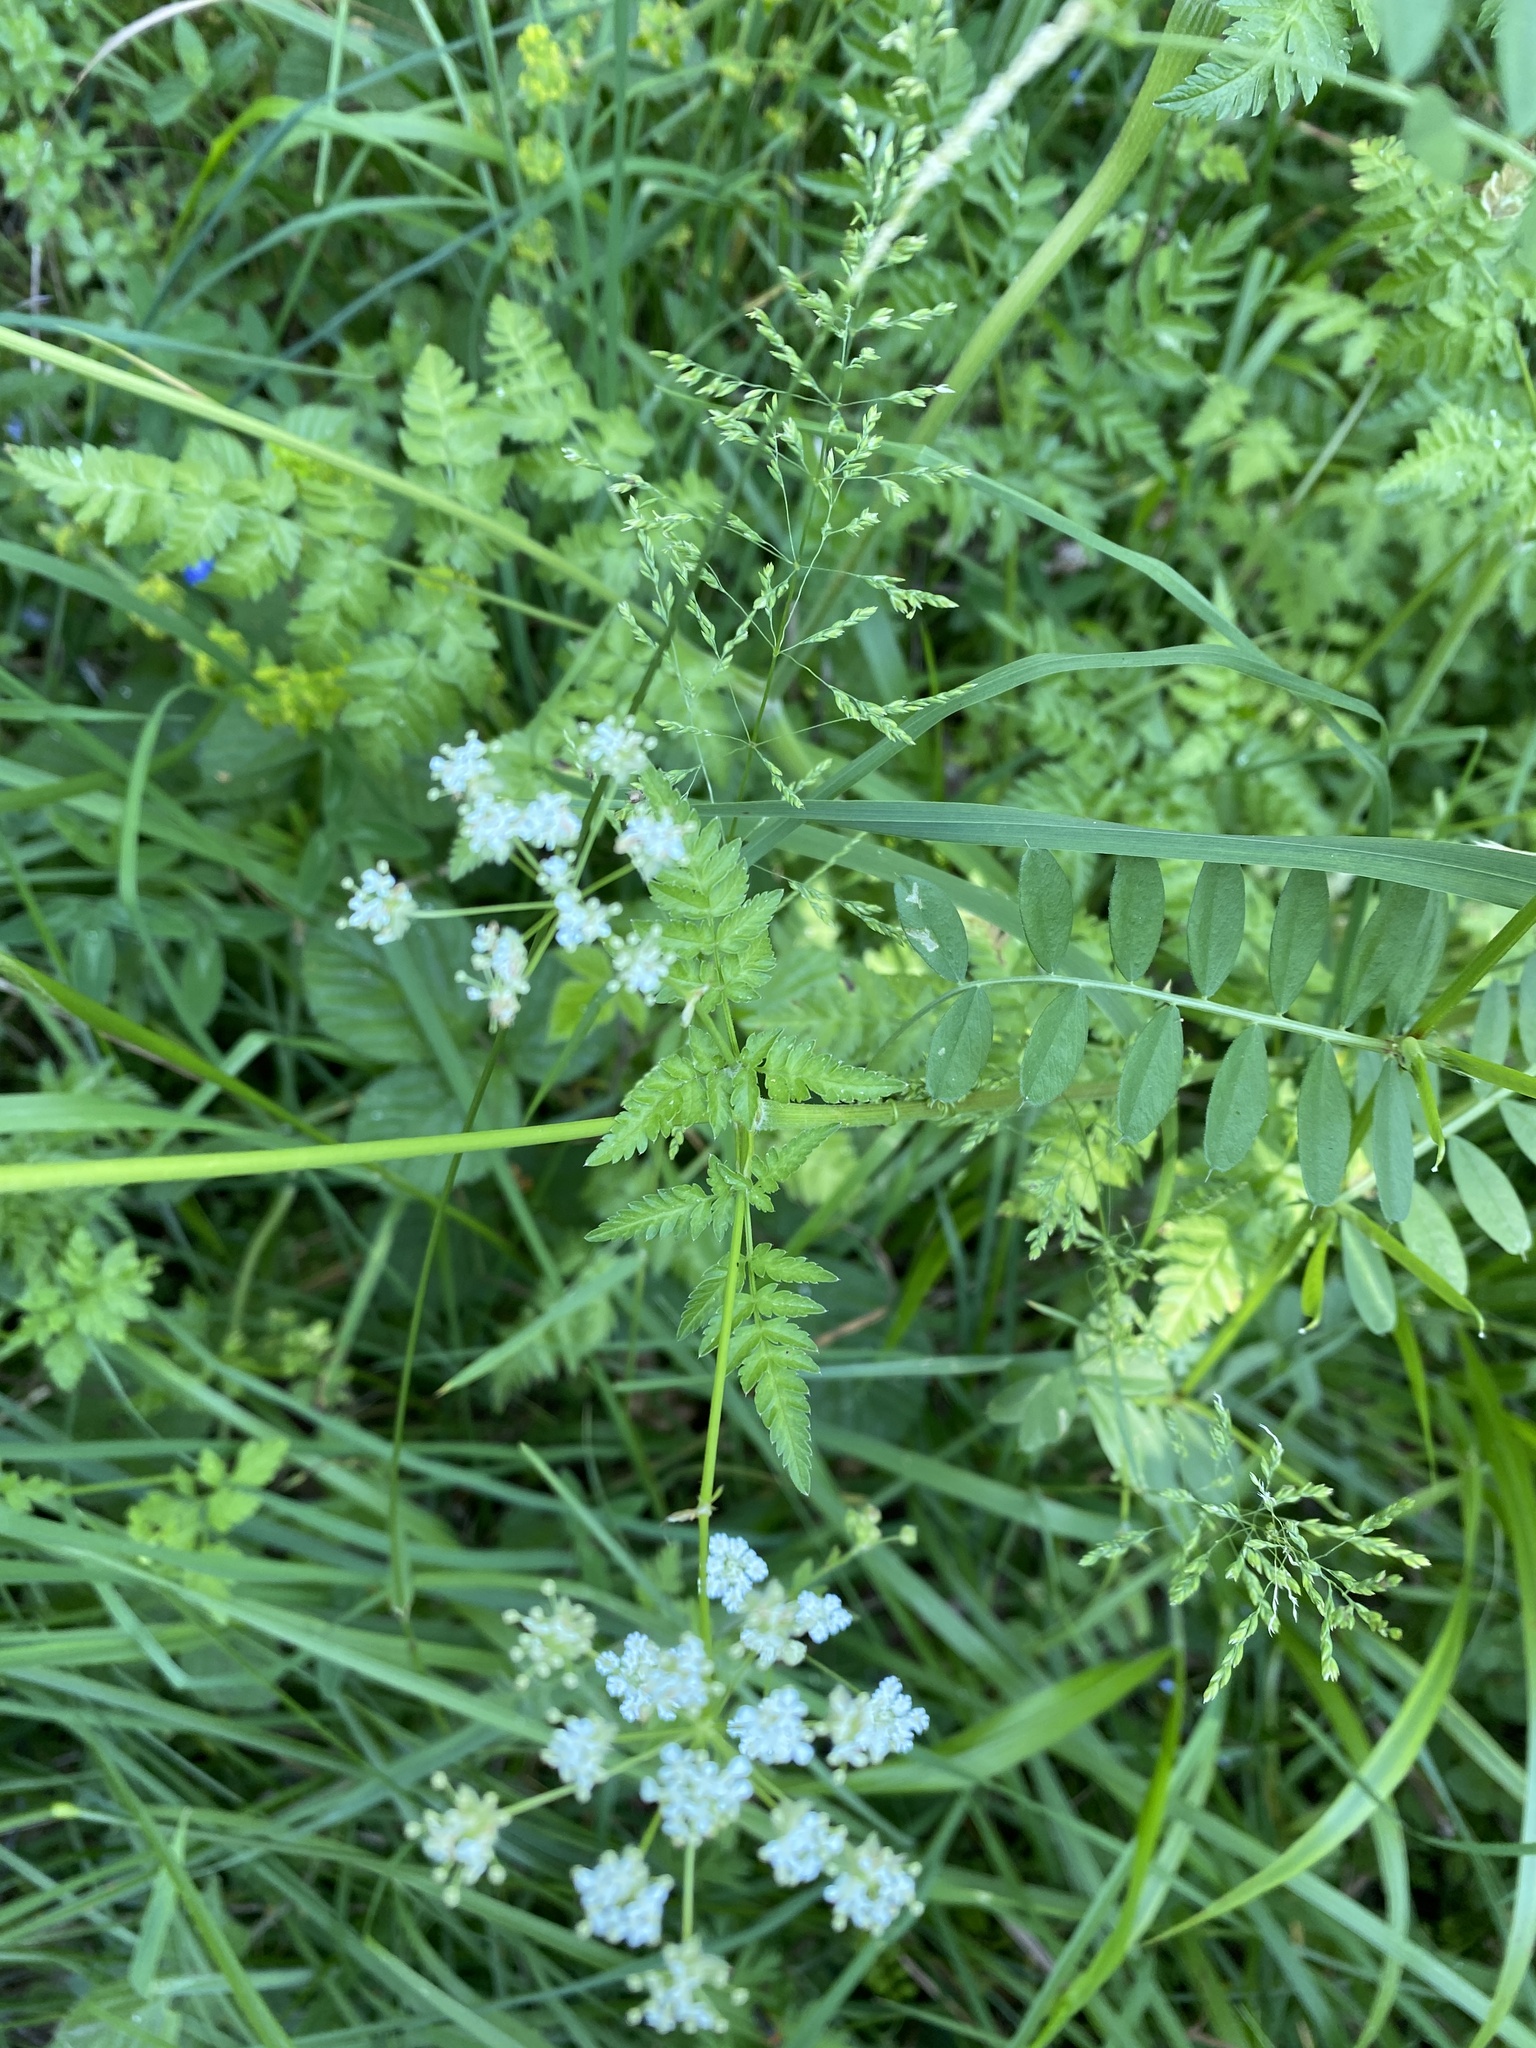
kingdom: Plantae
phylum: Tracheophyta
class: Magnoliopsida
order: Apiales
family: Apiaceae
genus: Anthriscus
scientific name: Anthriscus sylvestris
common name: Cow parsley
